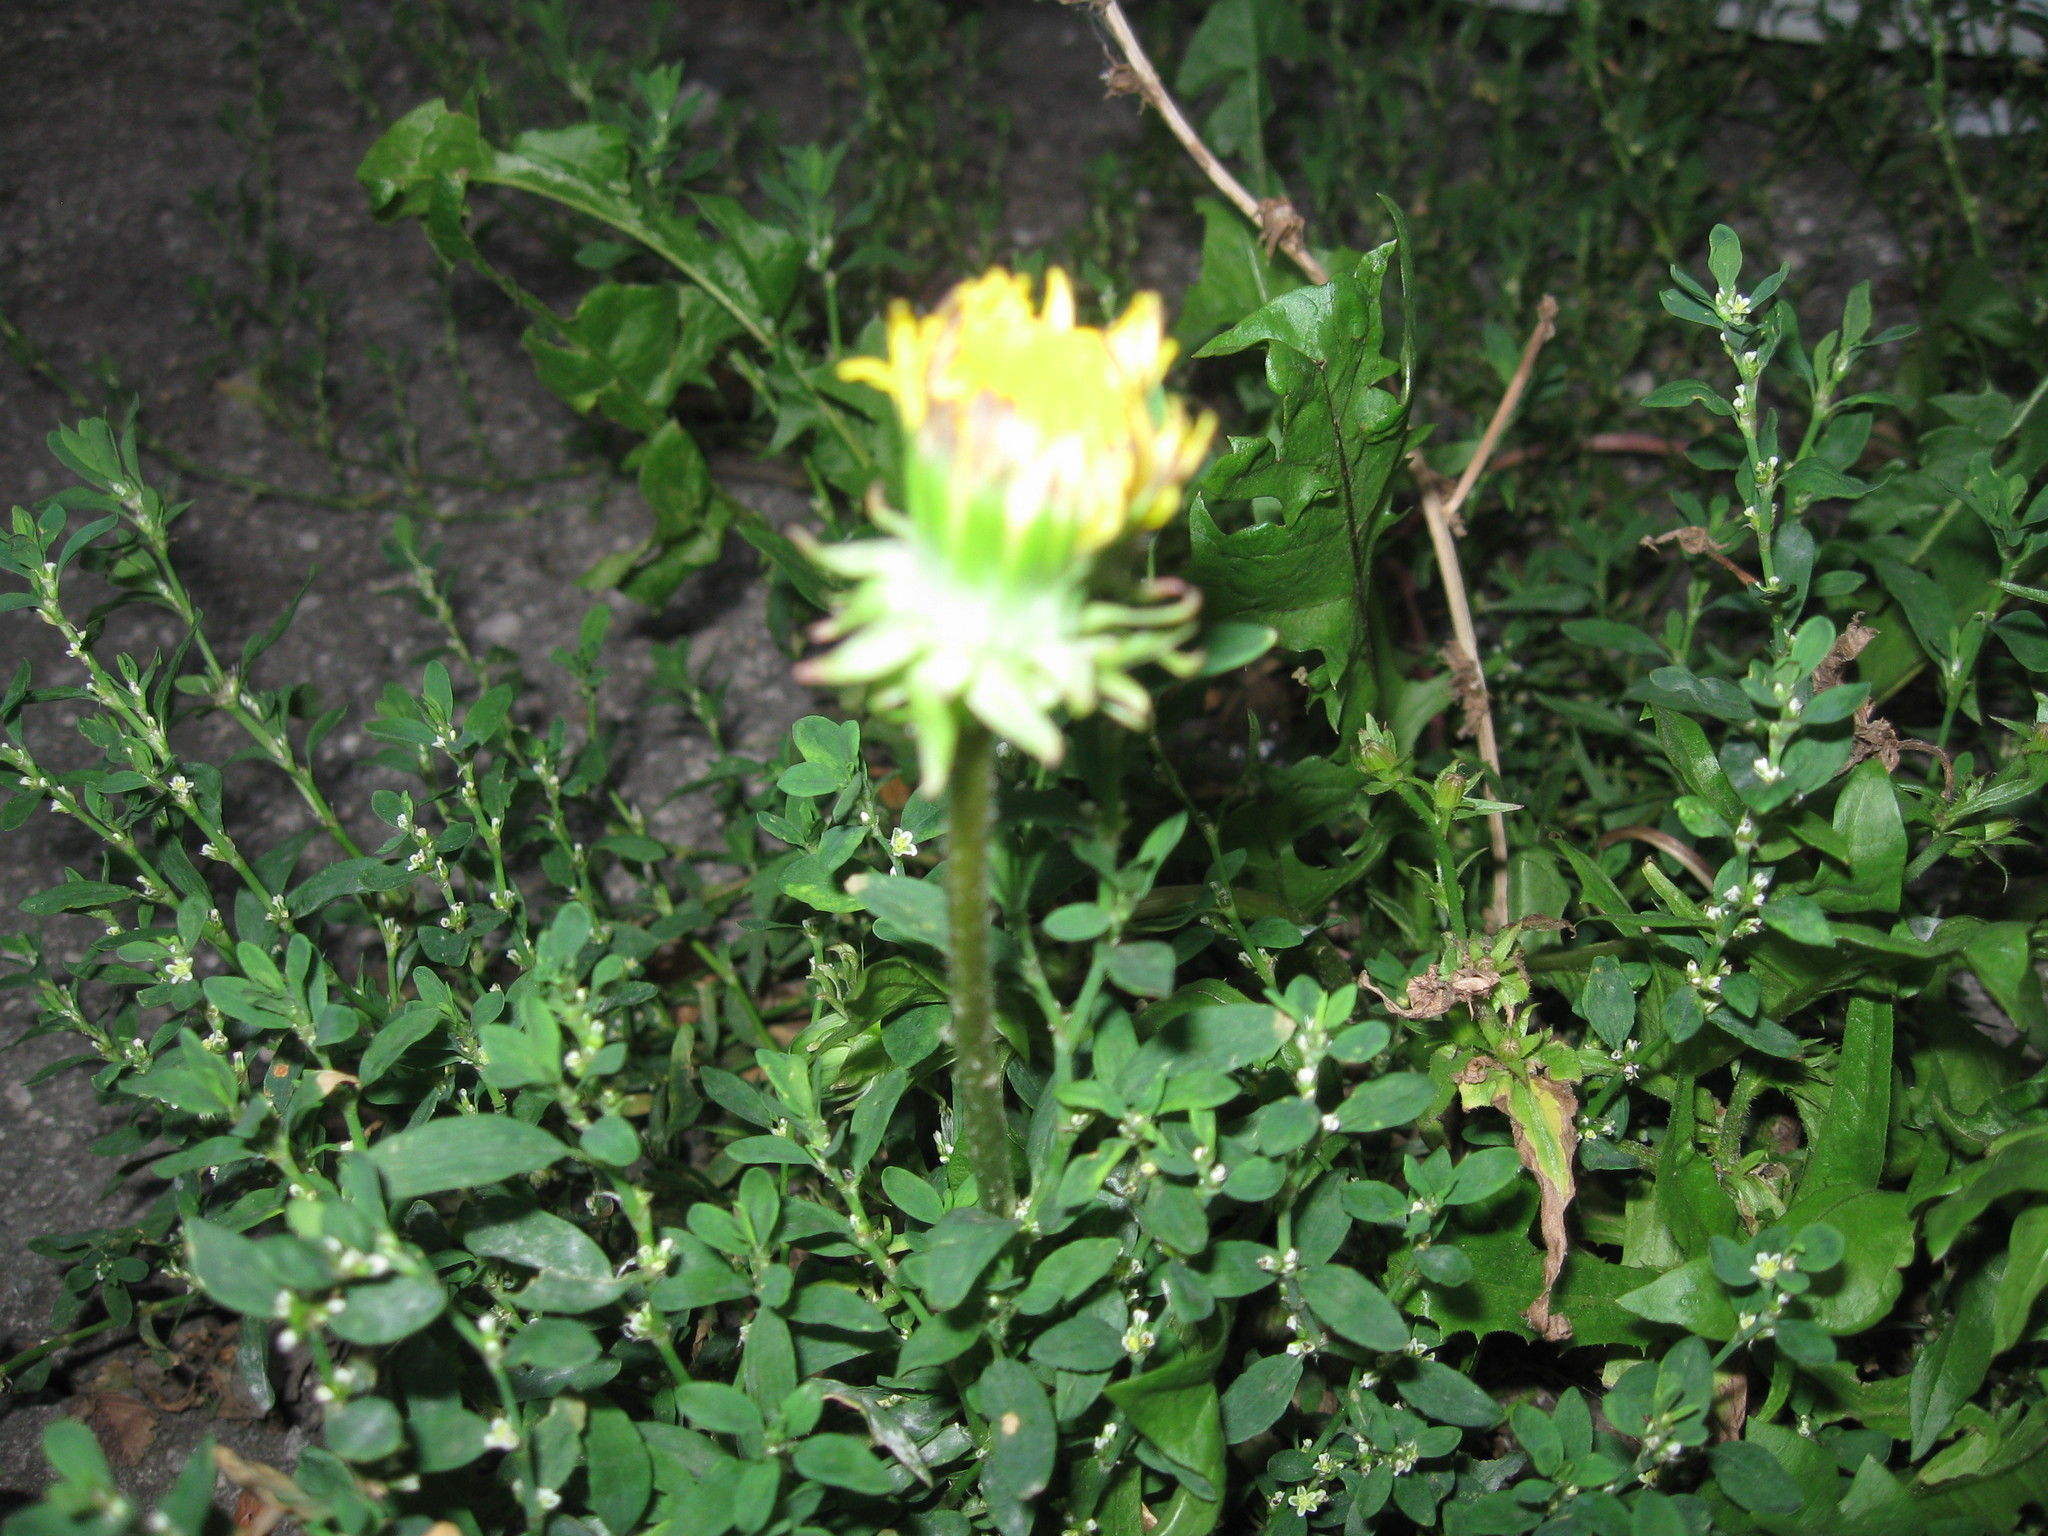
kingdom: Plantae
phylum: Tracheophyta
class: Magnoliopsida
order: Caryophyllales
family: Polygonaceae
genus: Polygonum
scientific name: Polygonum
